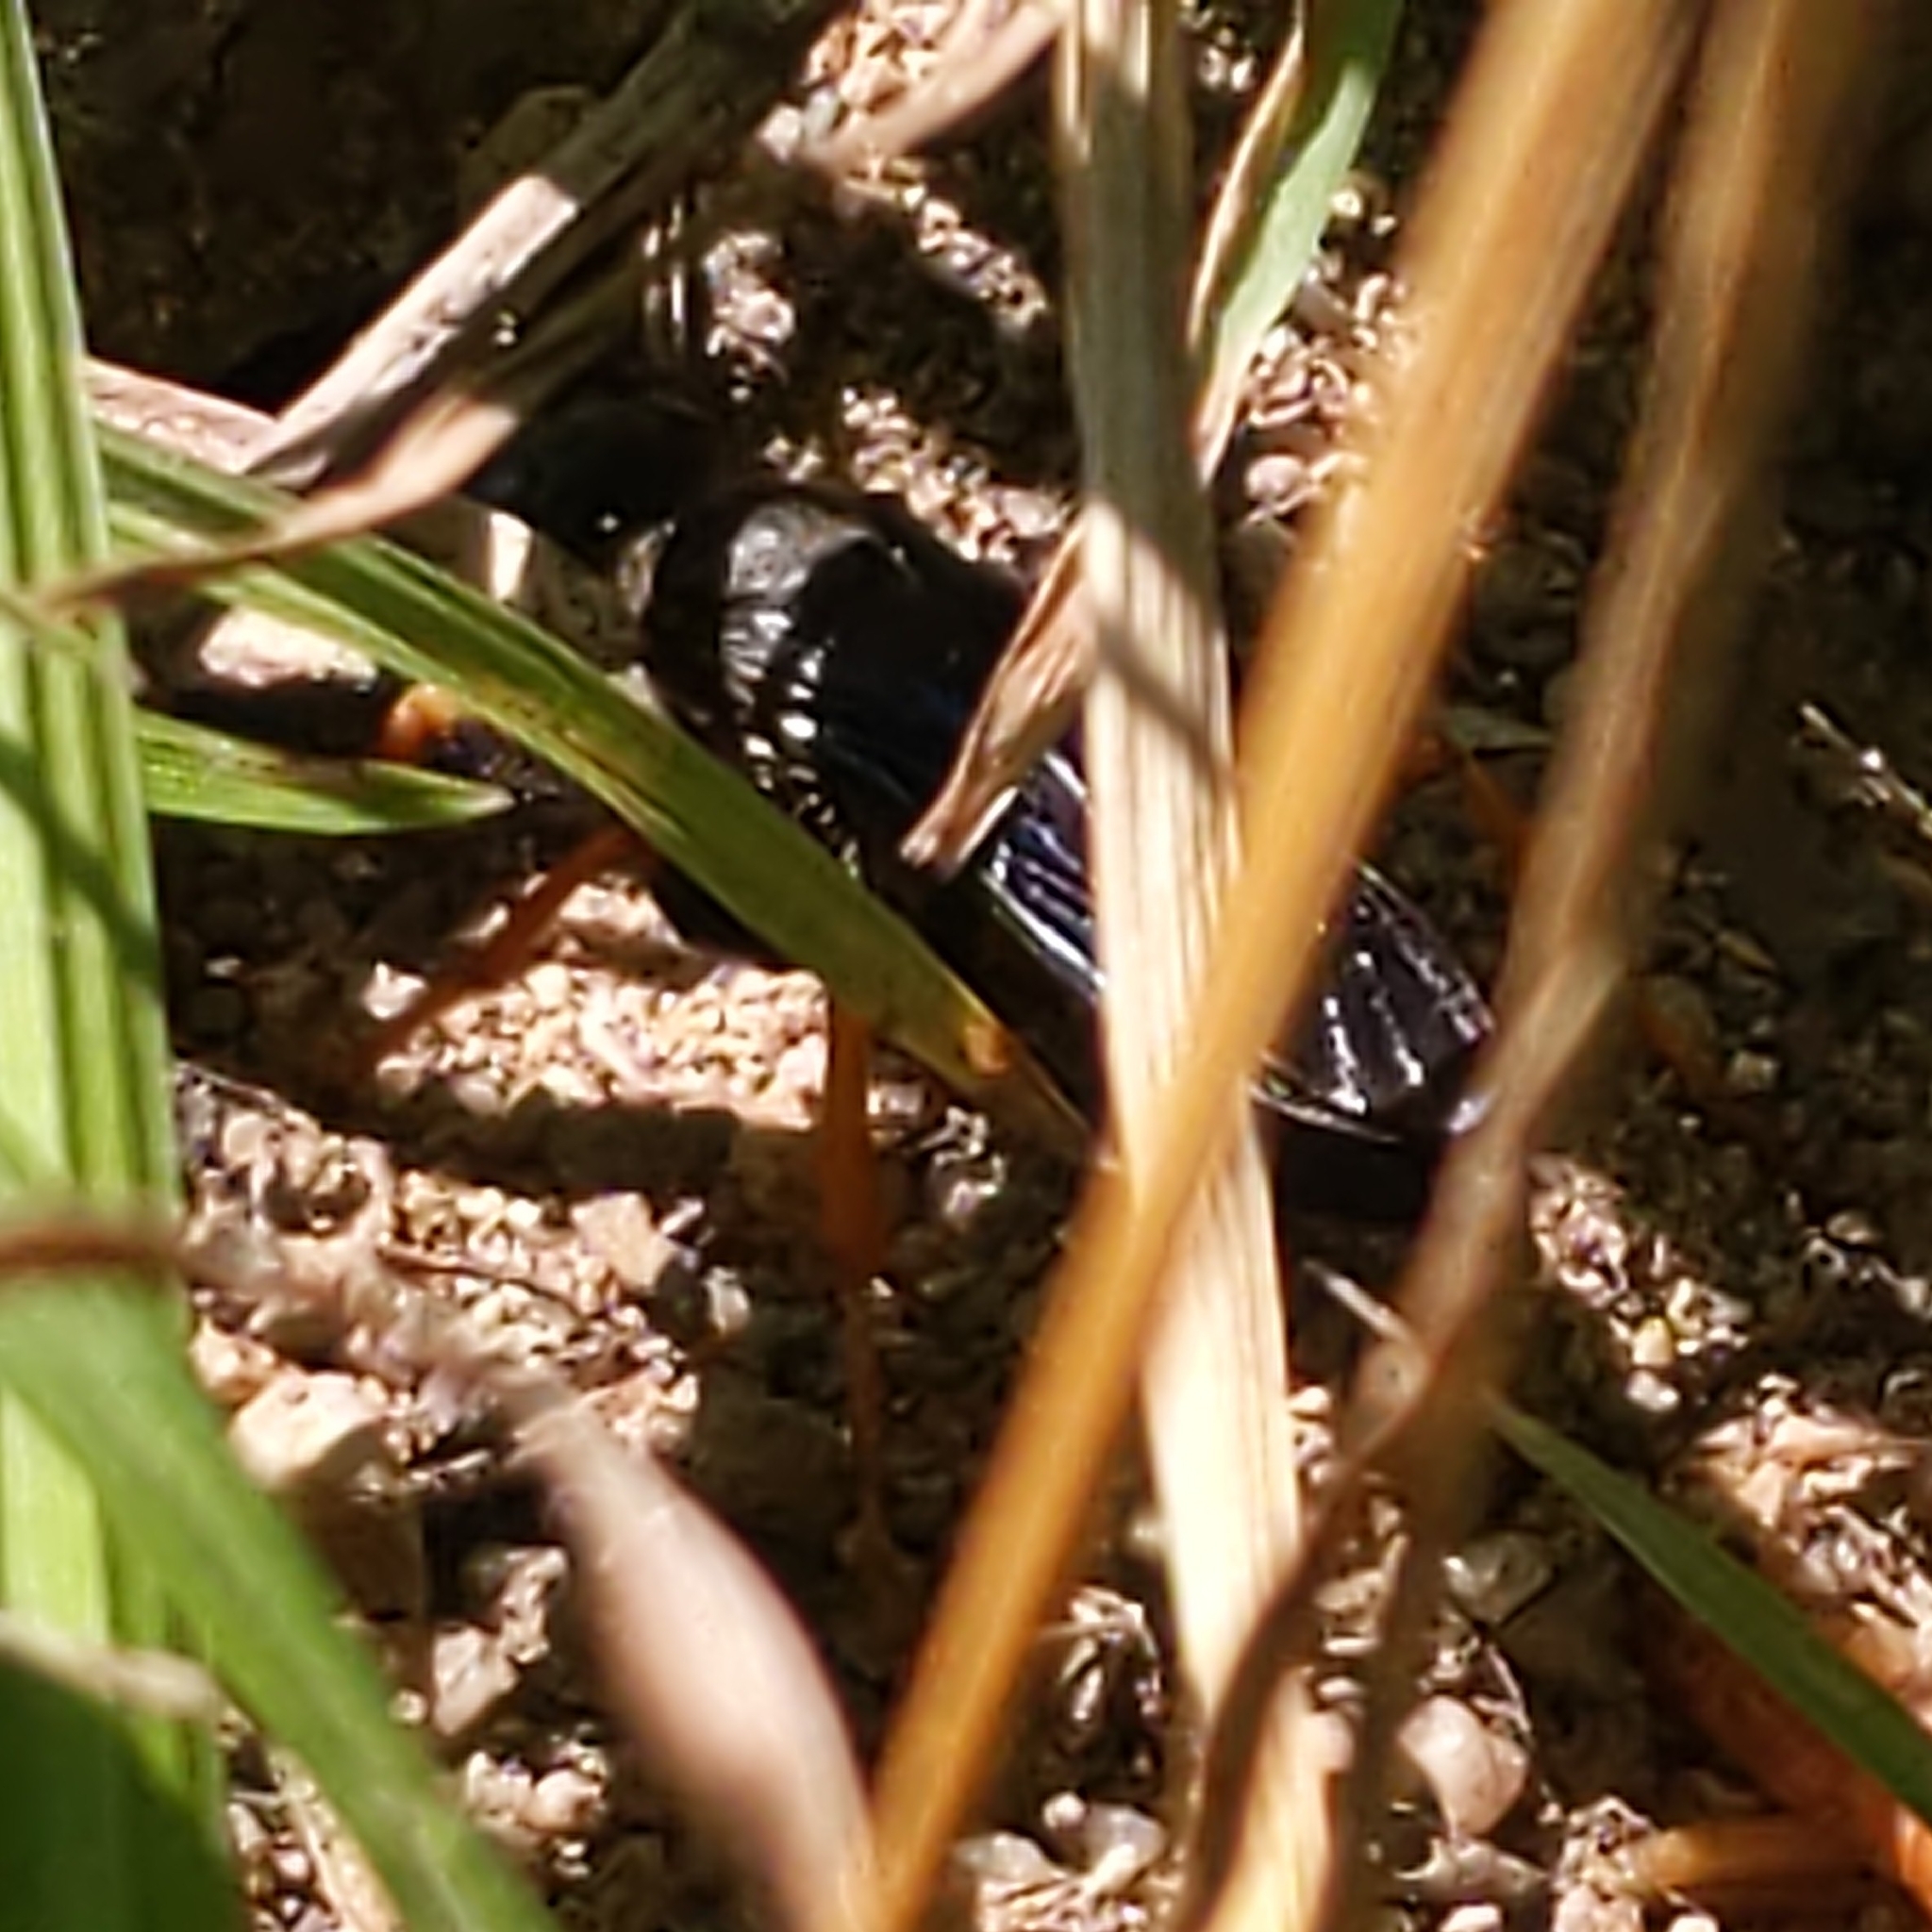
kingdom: Animalia
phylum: Arthropoda
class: Insecta
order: Hymenoptera
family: Sphecidae
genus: Sphex
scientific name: Sphex nudus
